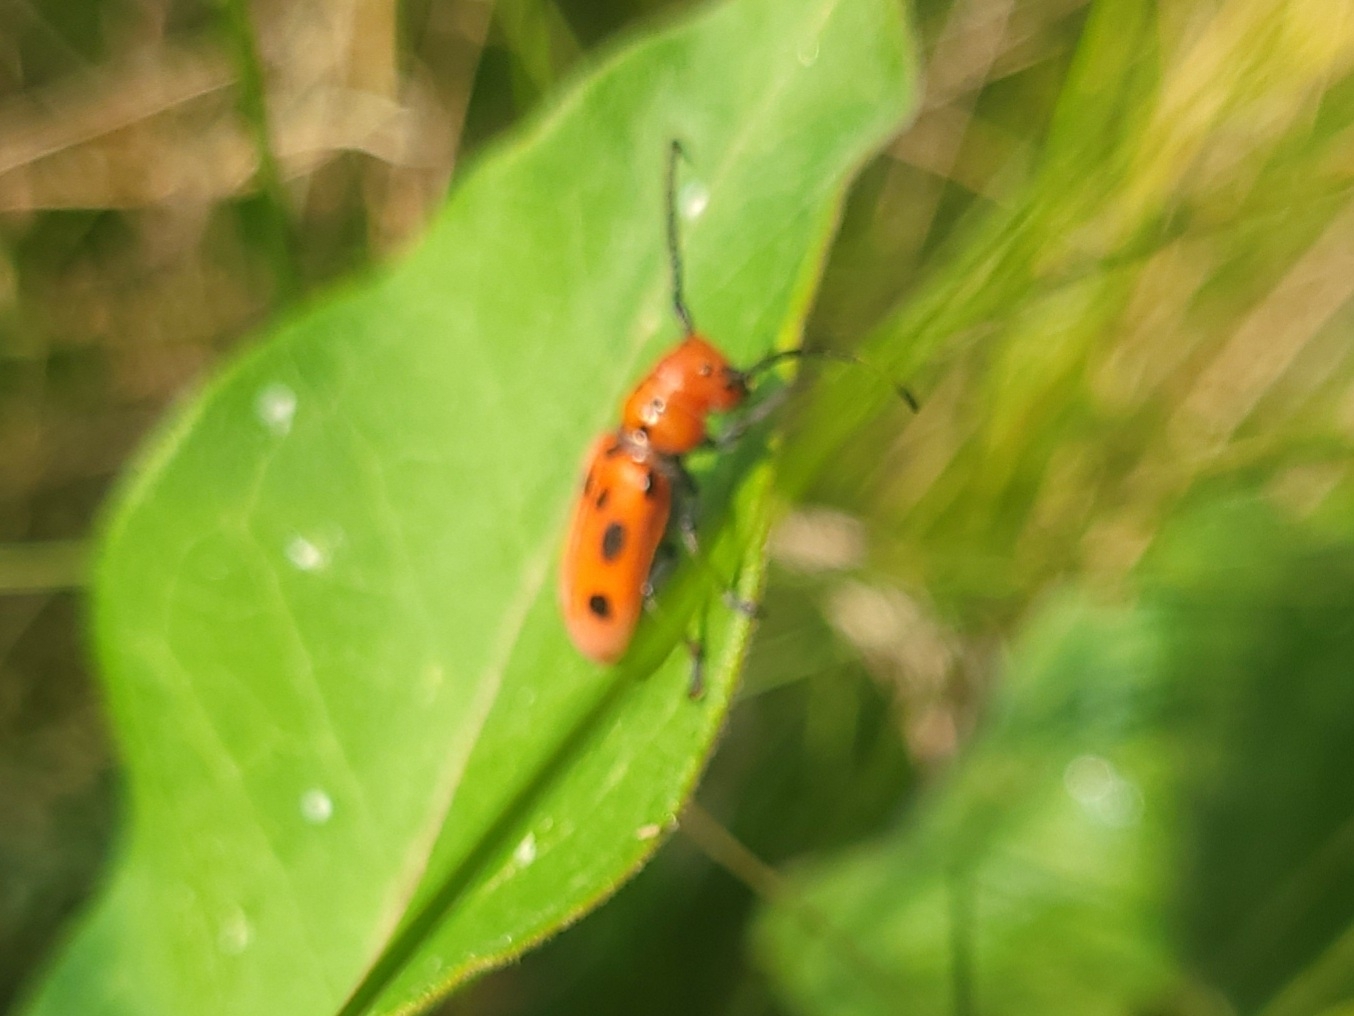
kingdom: Animalia
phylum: Arthropoda
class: Insecta
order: Coleoptera
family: Cerambycidae
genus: Tetraopes
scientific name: Tetraopes tetrophthalmus
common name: Red milkweed beetle
